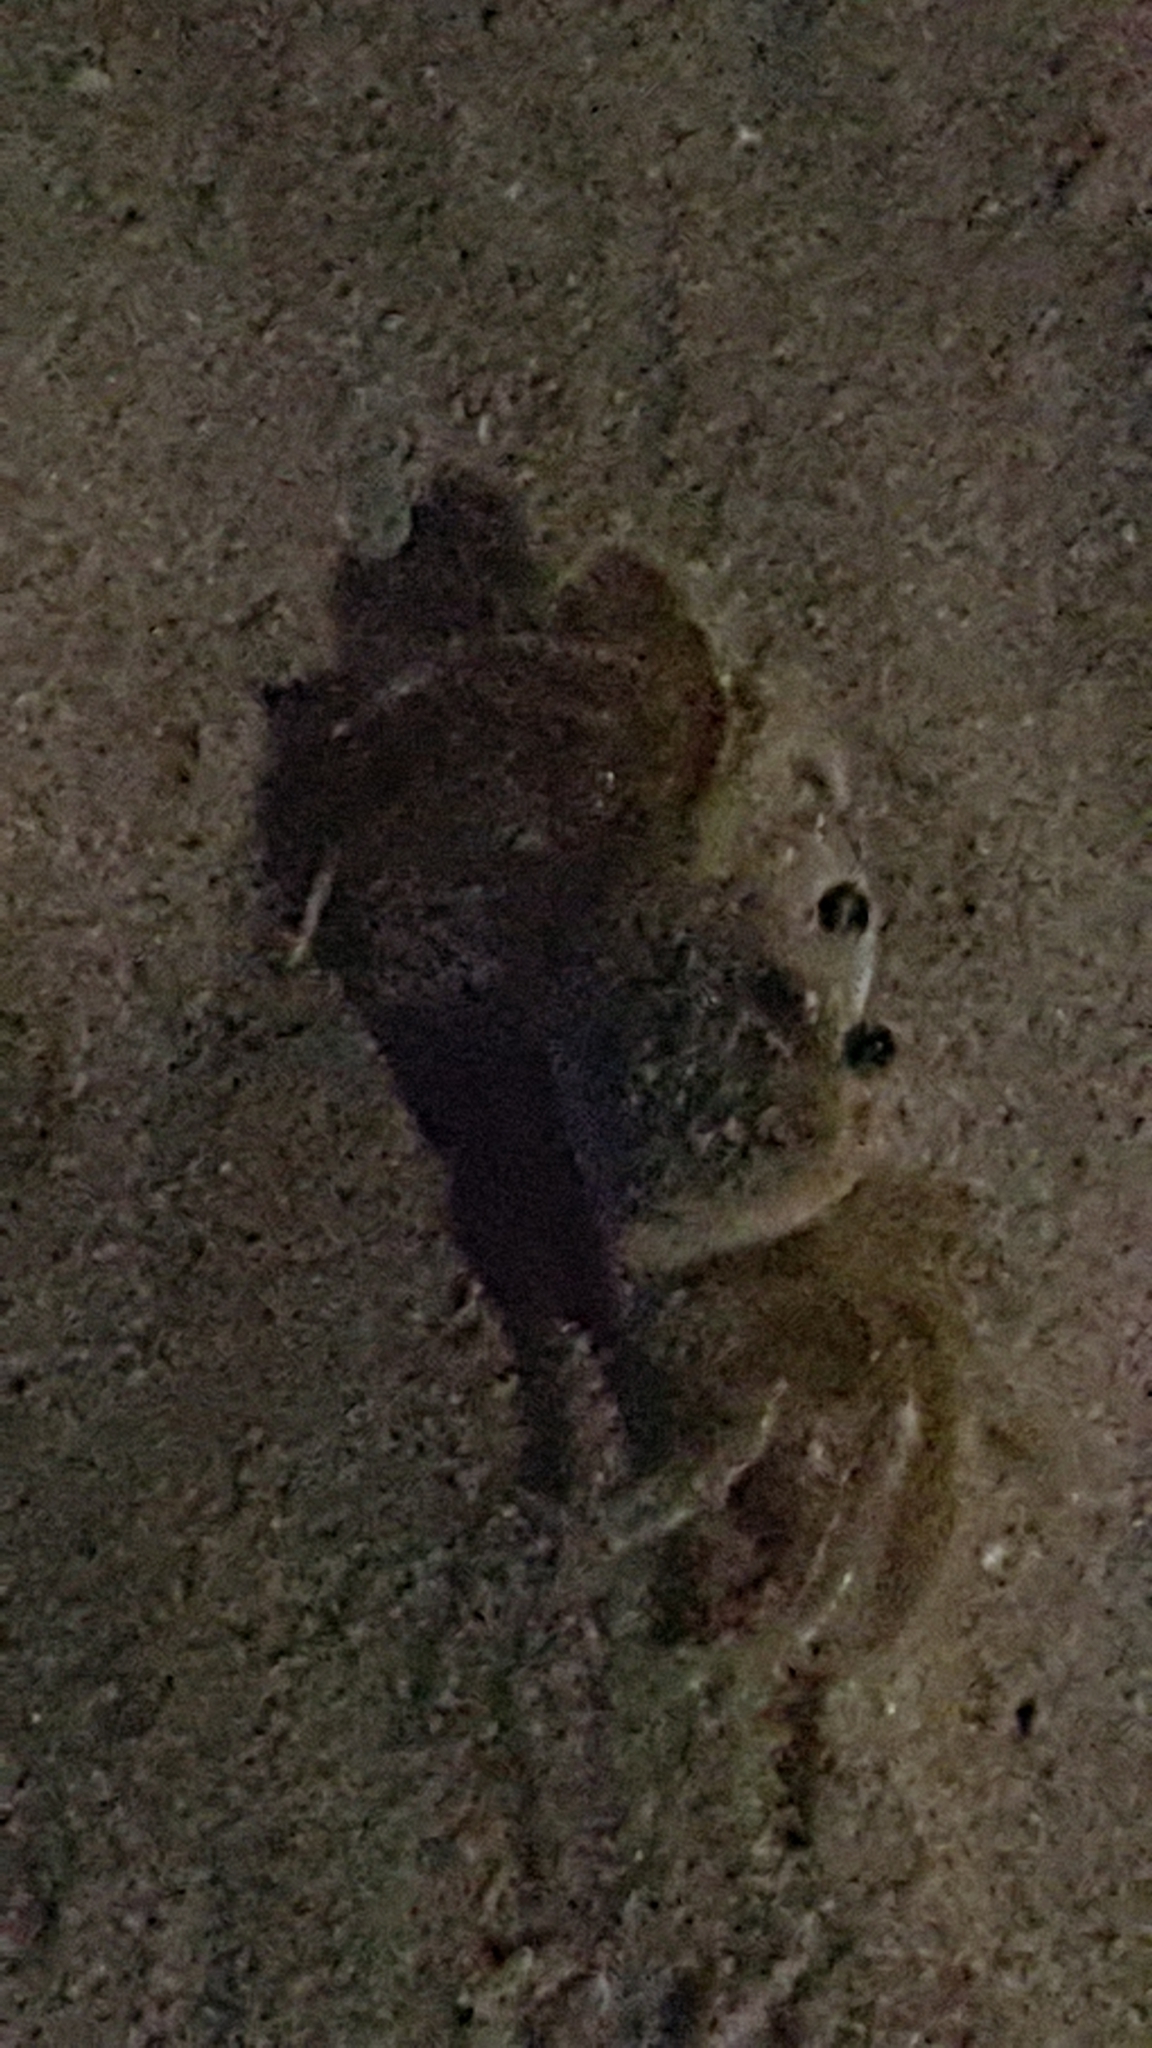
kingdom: Animalia
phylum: Arthropoda
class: Malacostraca
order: Decapoda
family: Ocypodidae
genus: Ocypode
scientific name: Ocypode quadrata
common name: Ghost crab
